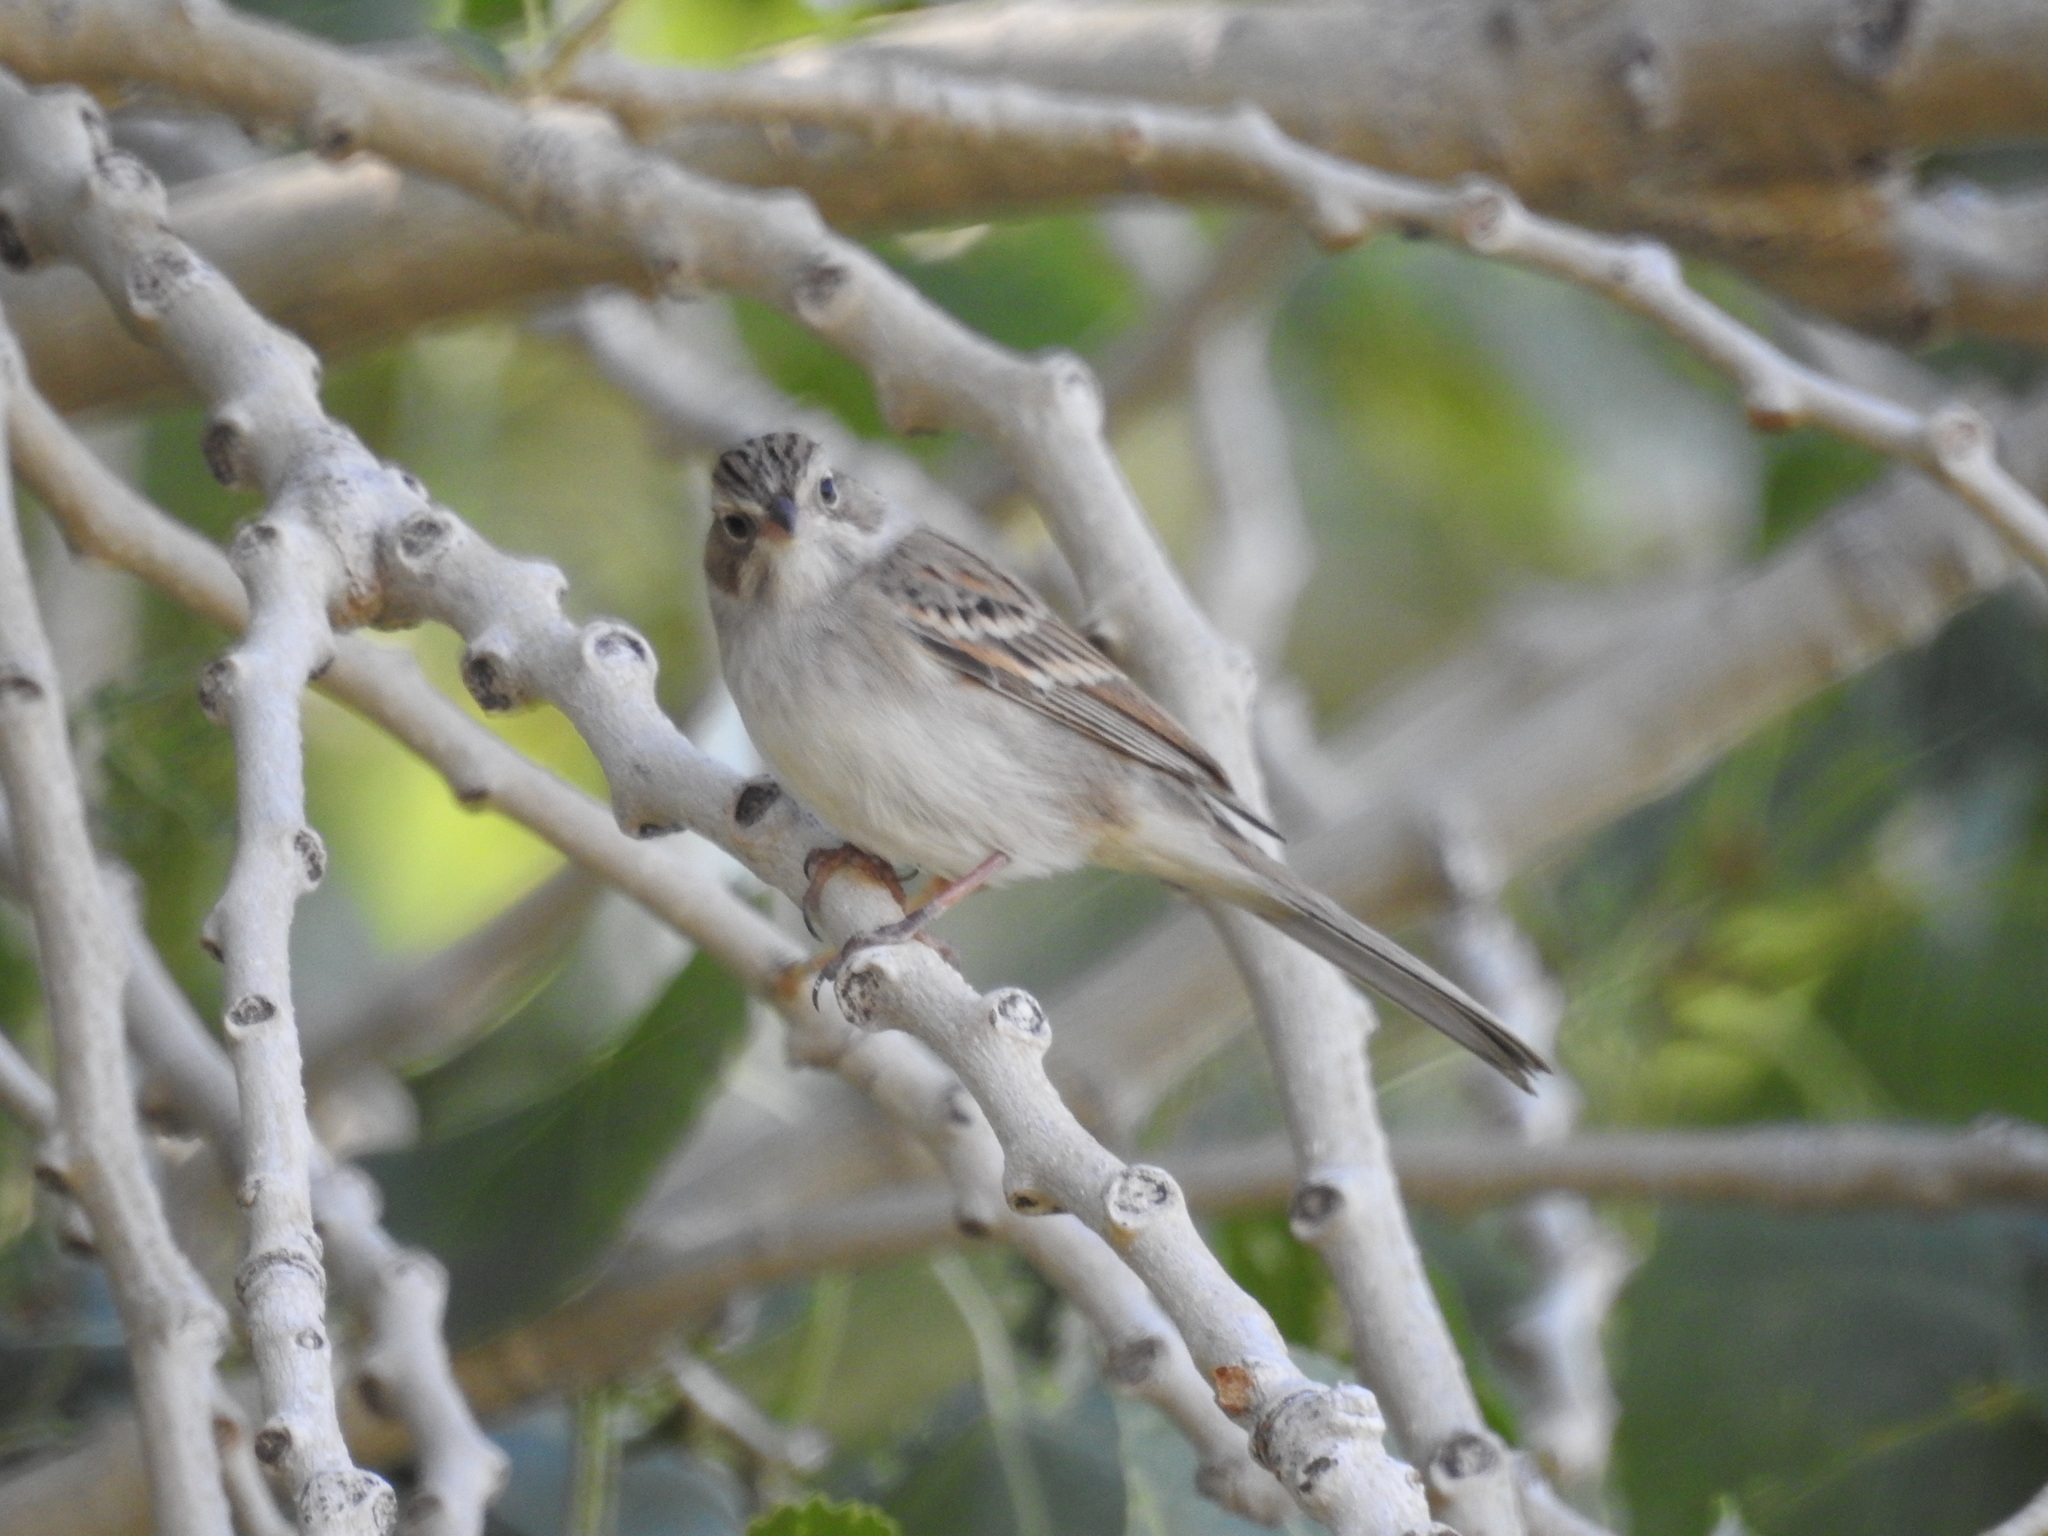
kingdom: Animalia
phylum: Chordata
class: Aves
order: Passeriformes
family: Passerellidae
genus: Spizella
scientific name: Spizella breweri
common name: Brewer's sparrow
